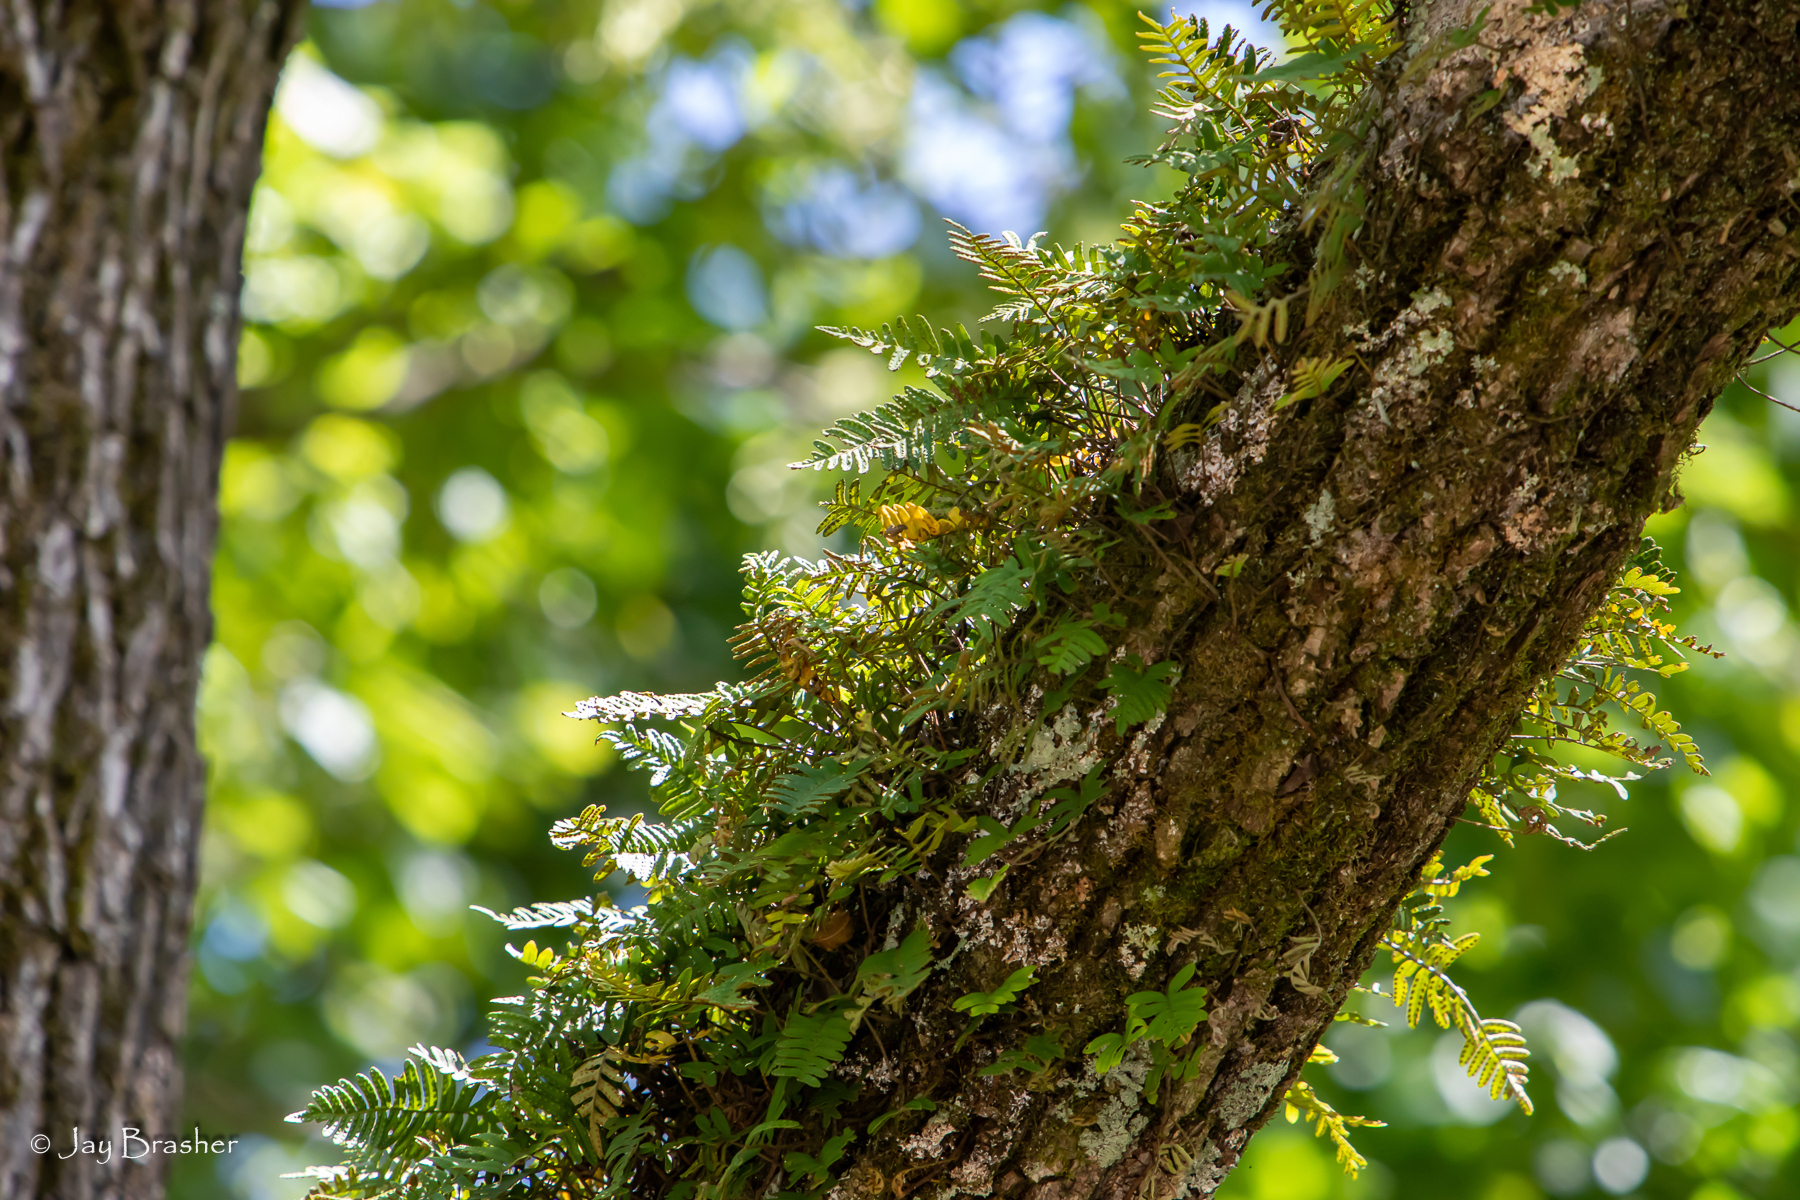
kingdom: Plantae
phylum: Tracheophyta
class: Polypodiopsida
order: Polypodiales
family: Polypodiaceae
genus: Pleopeltis
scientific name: Pleopeltis michauxiana
